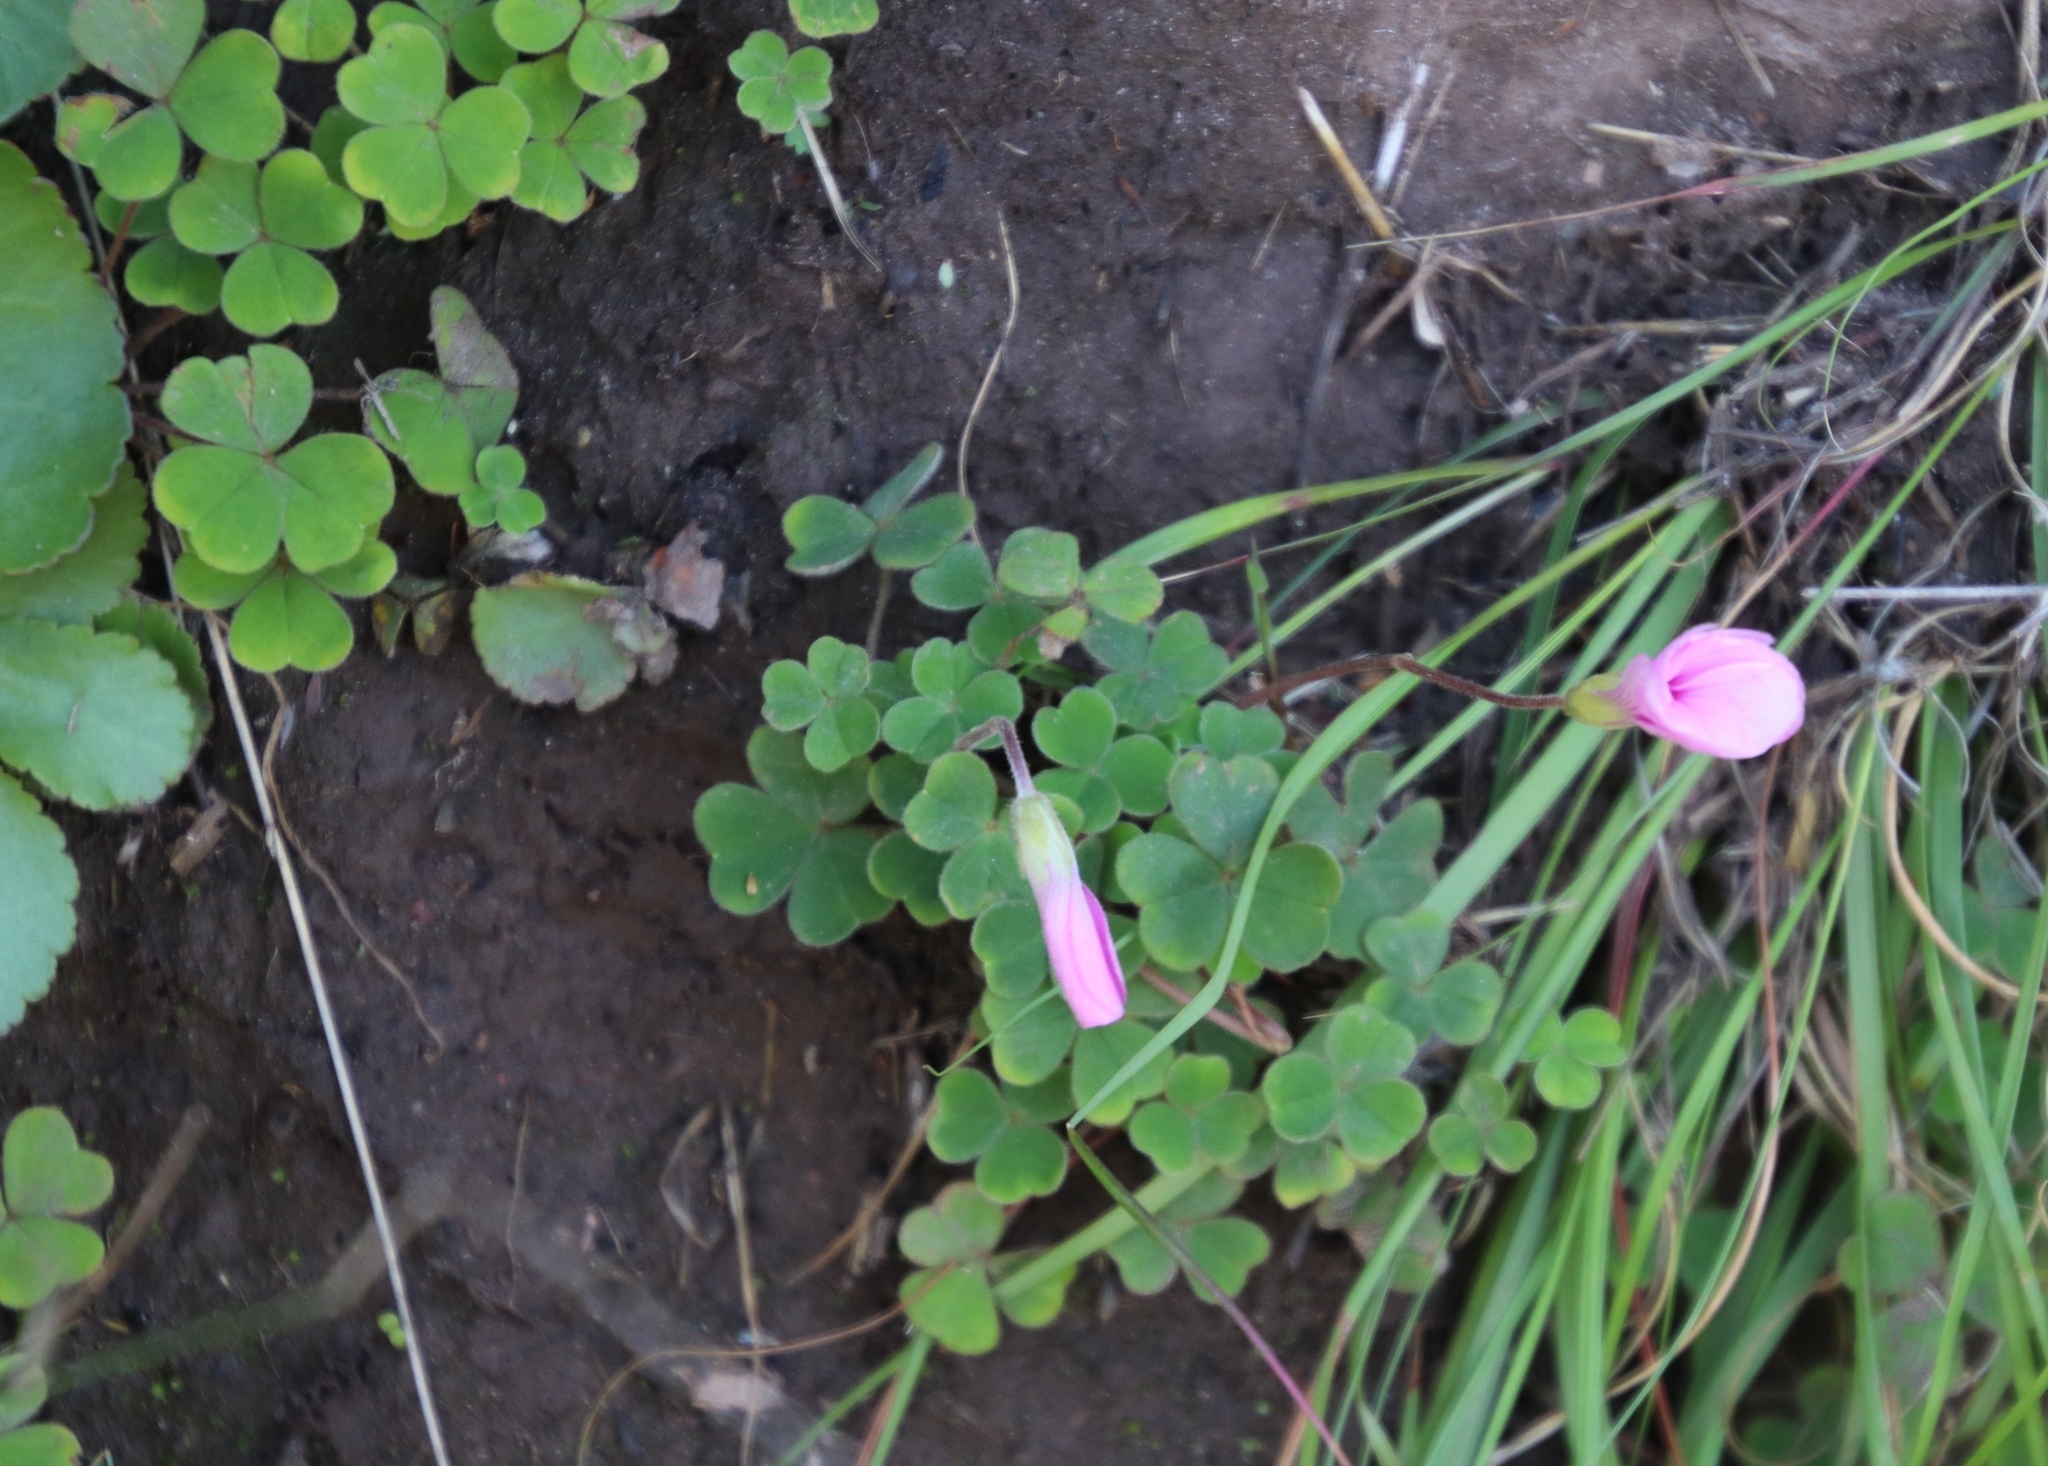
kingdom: Plantae
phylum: Tracheophyta
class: Magnoliopsida
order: Oxalidales
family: Oxalidaceae
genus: Oxalis
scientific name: Oxalis lanata
